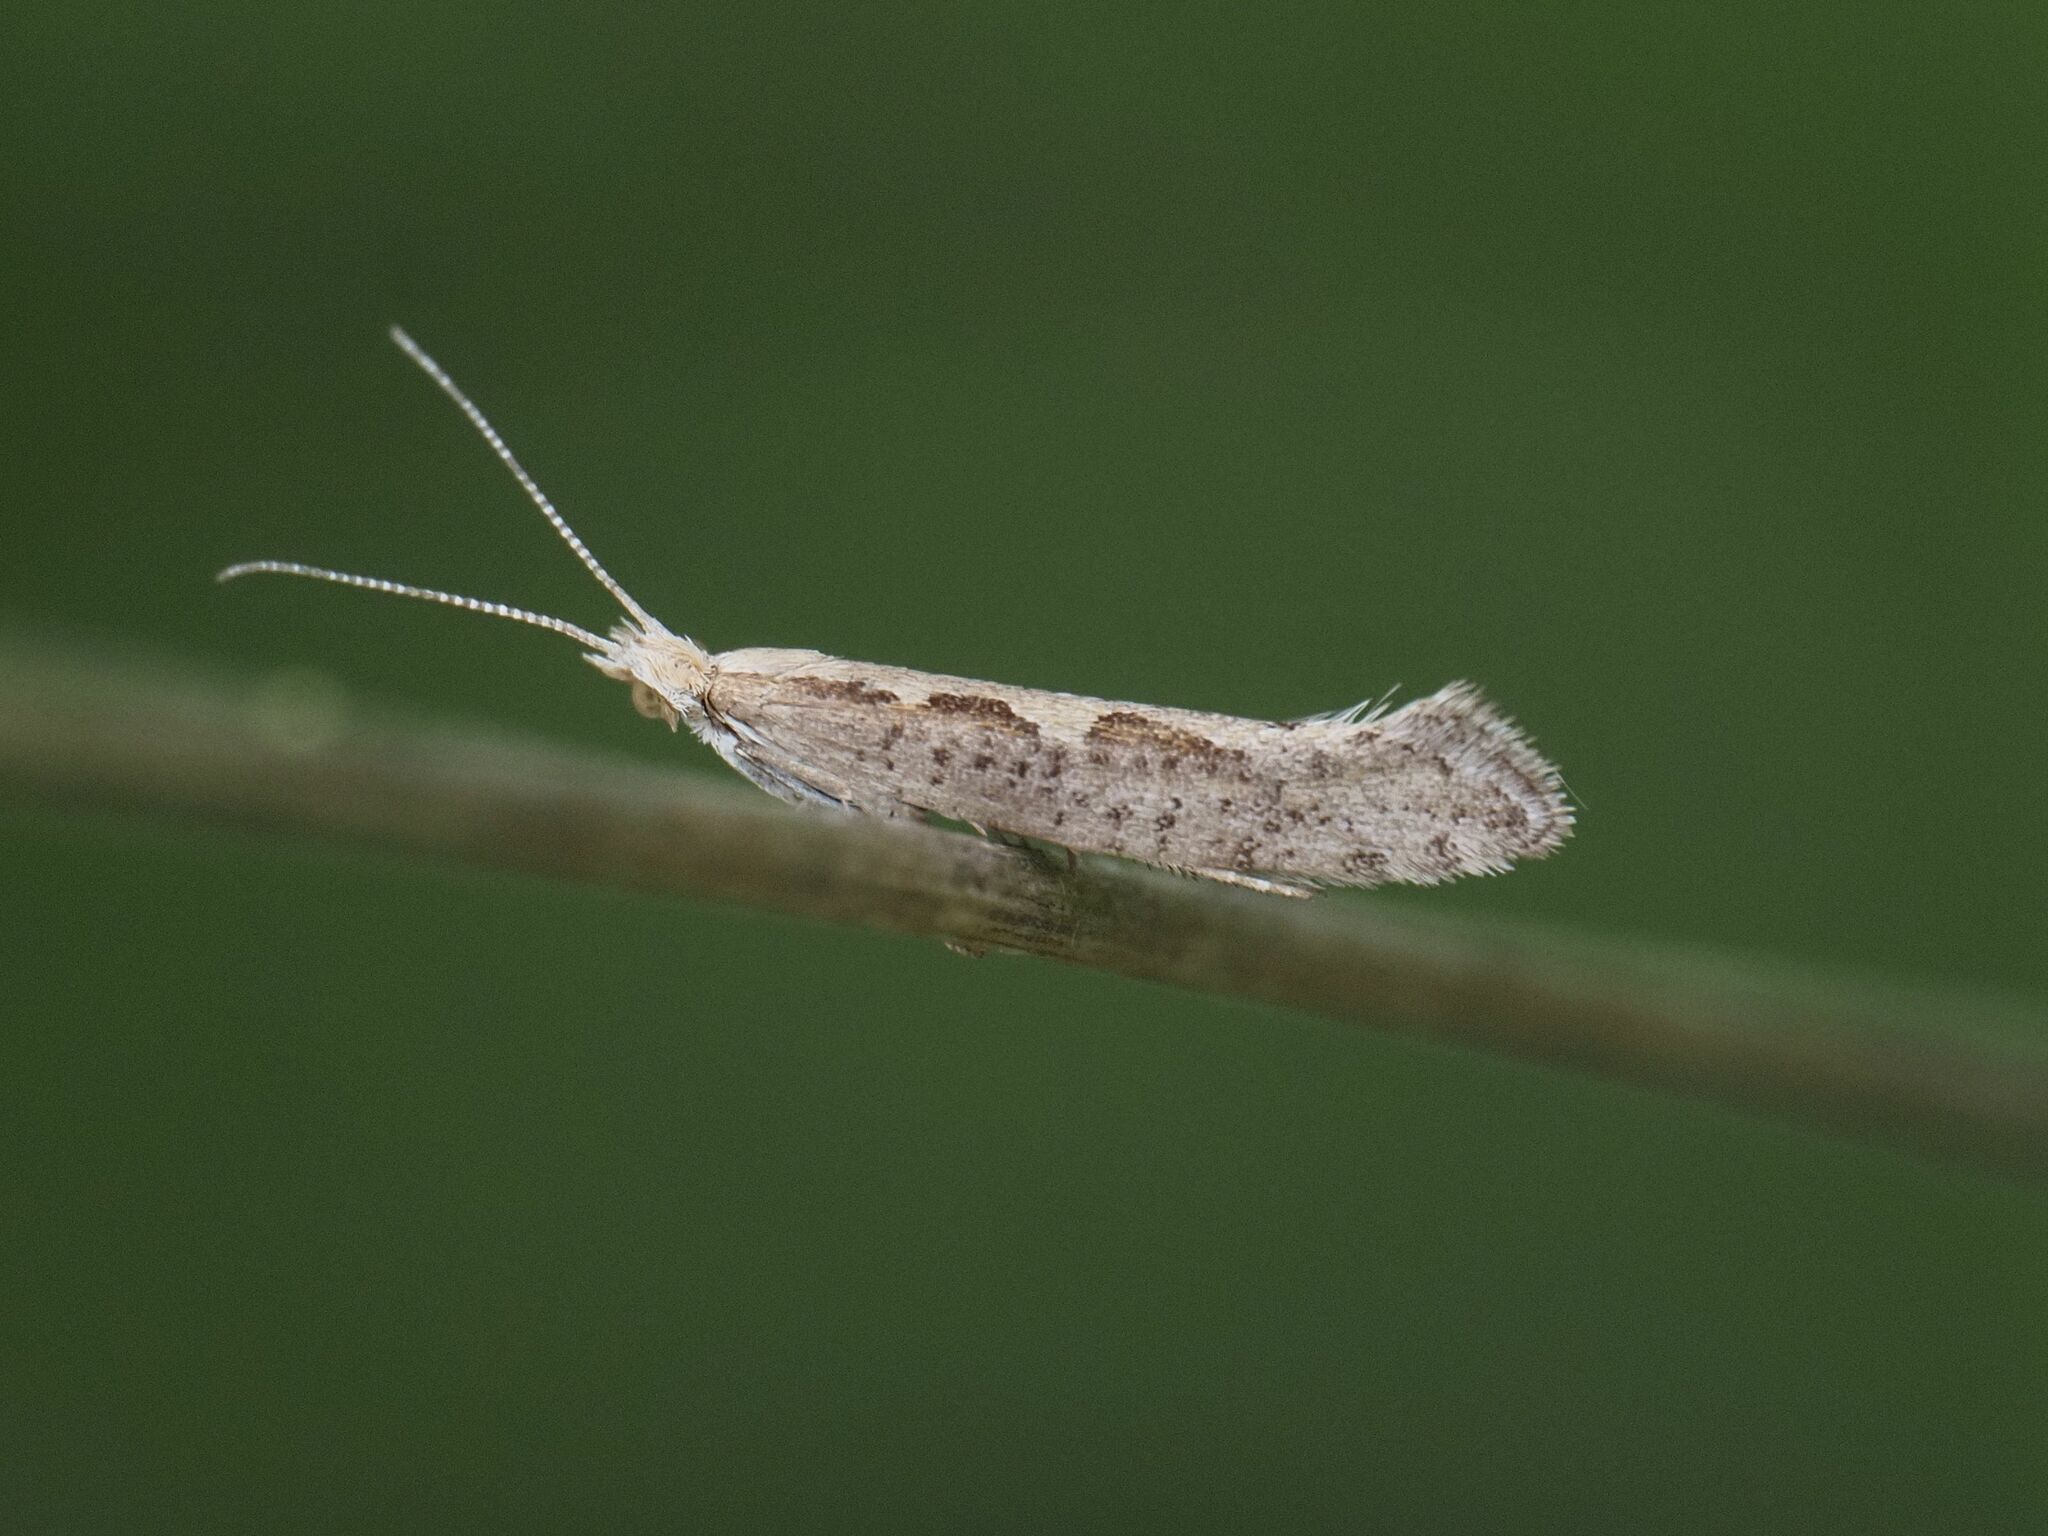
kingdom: Animalia
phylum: Arthropoda
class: Insecta
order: Lepidoptera
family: Plutellidae
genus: Plutella
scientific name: Plutella xylostella
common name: Diamond-back moth
